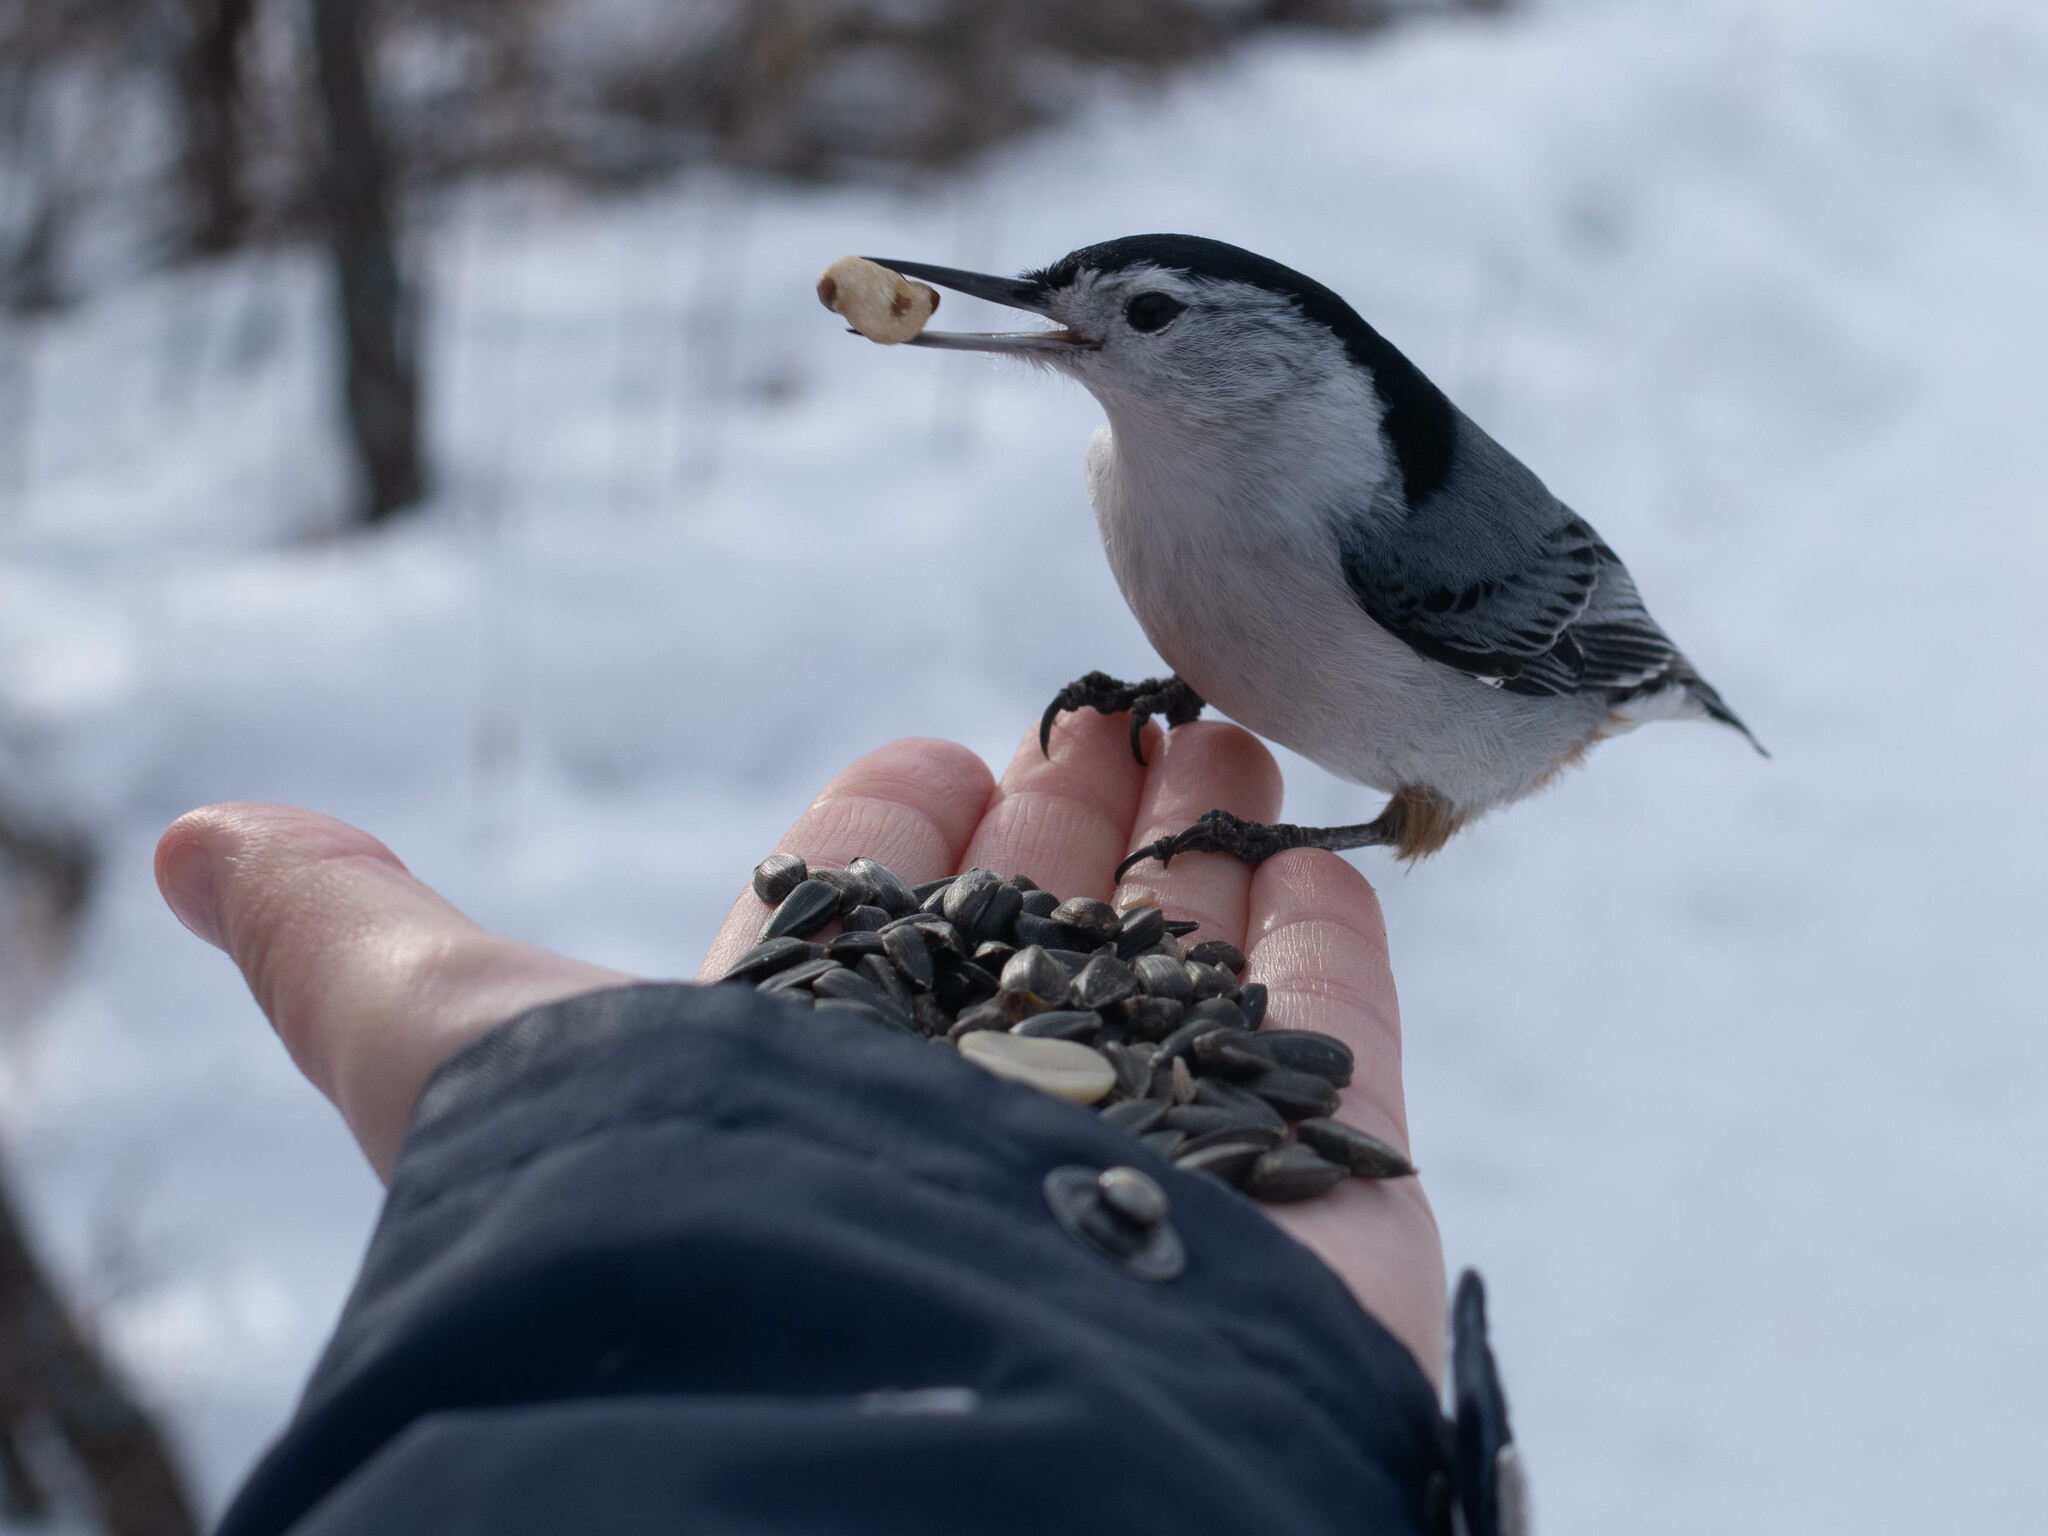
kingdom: Animalia
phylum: Chordata
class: Aves
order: Passeriformes
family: Sittidae
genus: Sitta
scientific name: Sitta carolinensis
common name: White-breasted nuthatch
